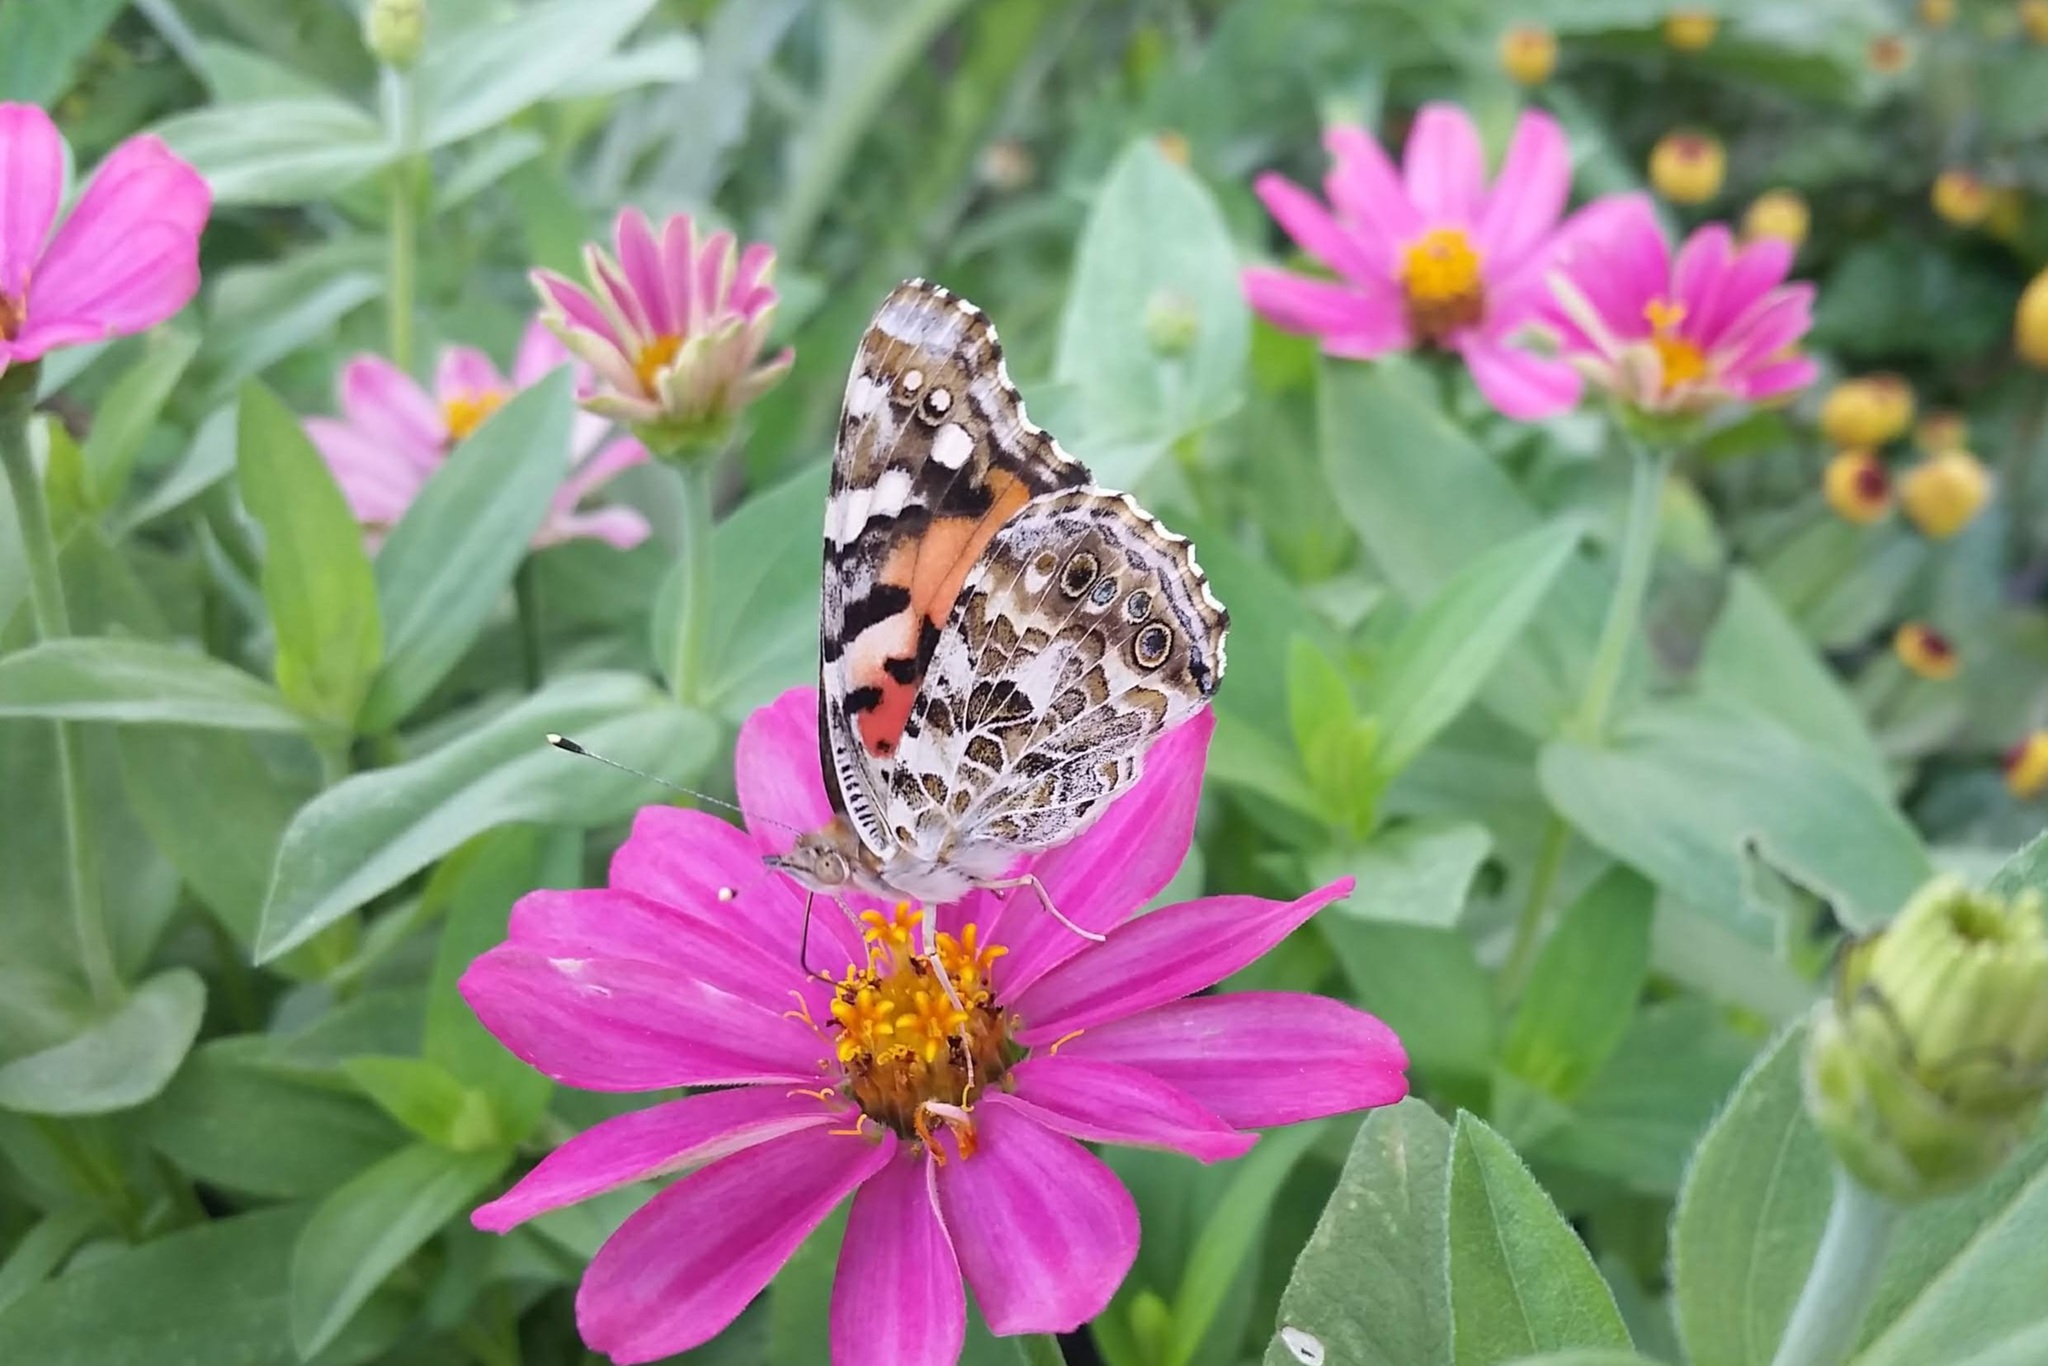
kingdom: Animalia
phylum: Arthropoda
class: Insecta
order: Lepidoptera
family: Nymphalidae
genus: Vanessa
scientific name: Vanessa cardui
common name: Painted lady
